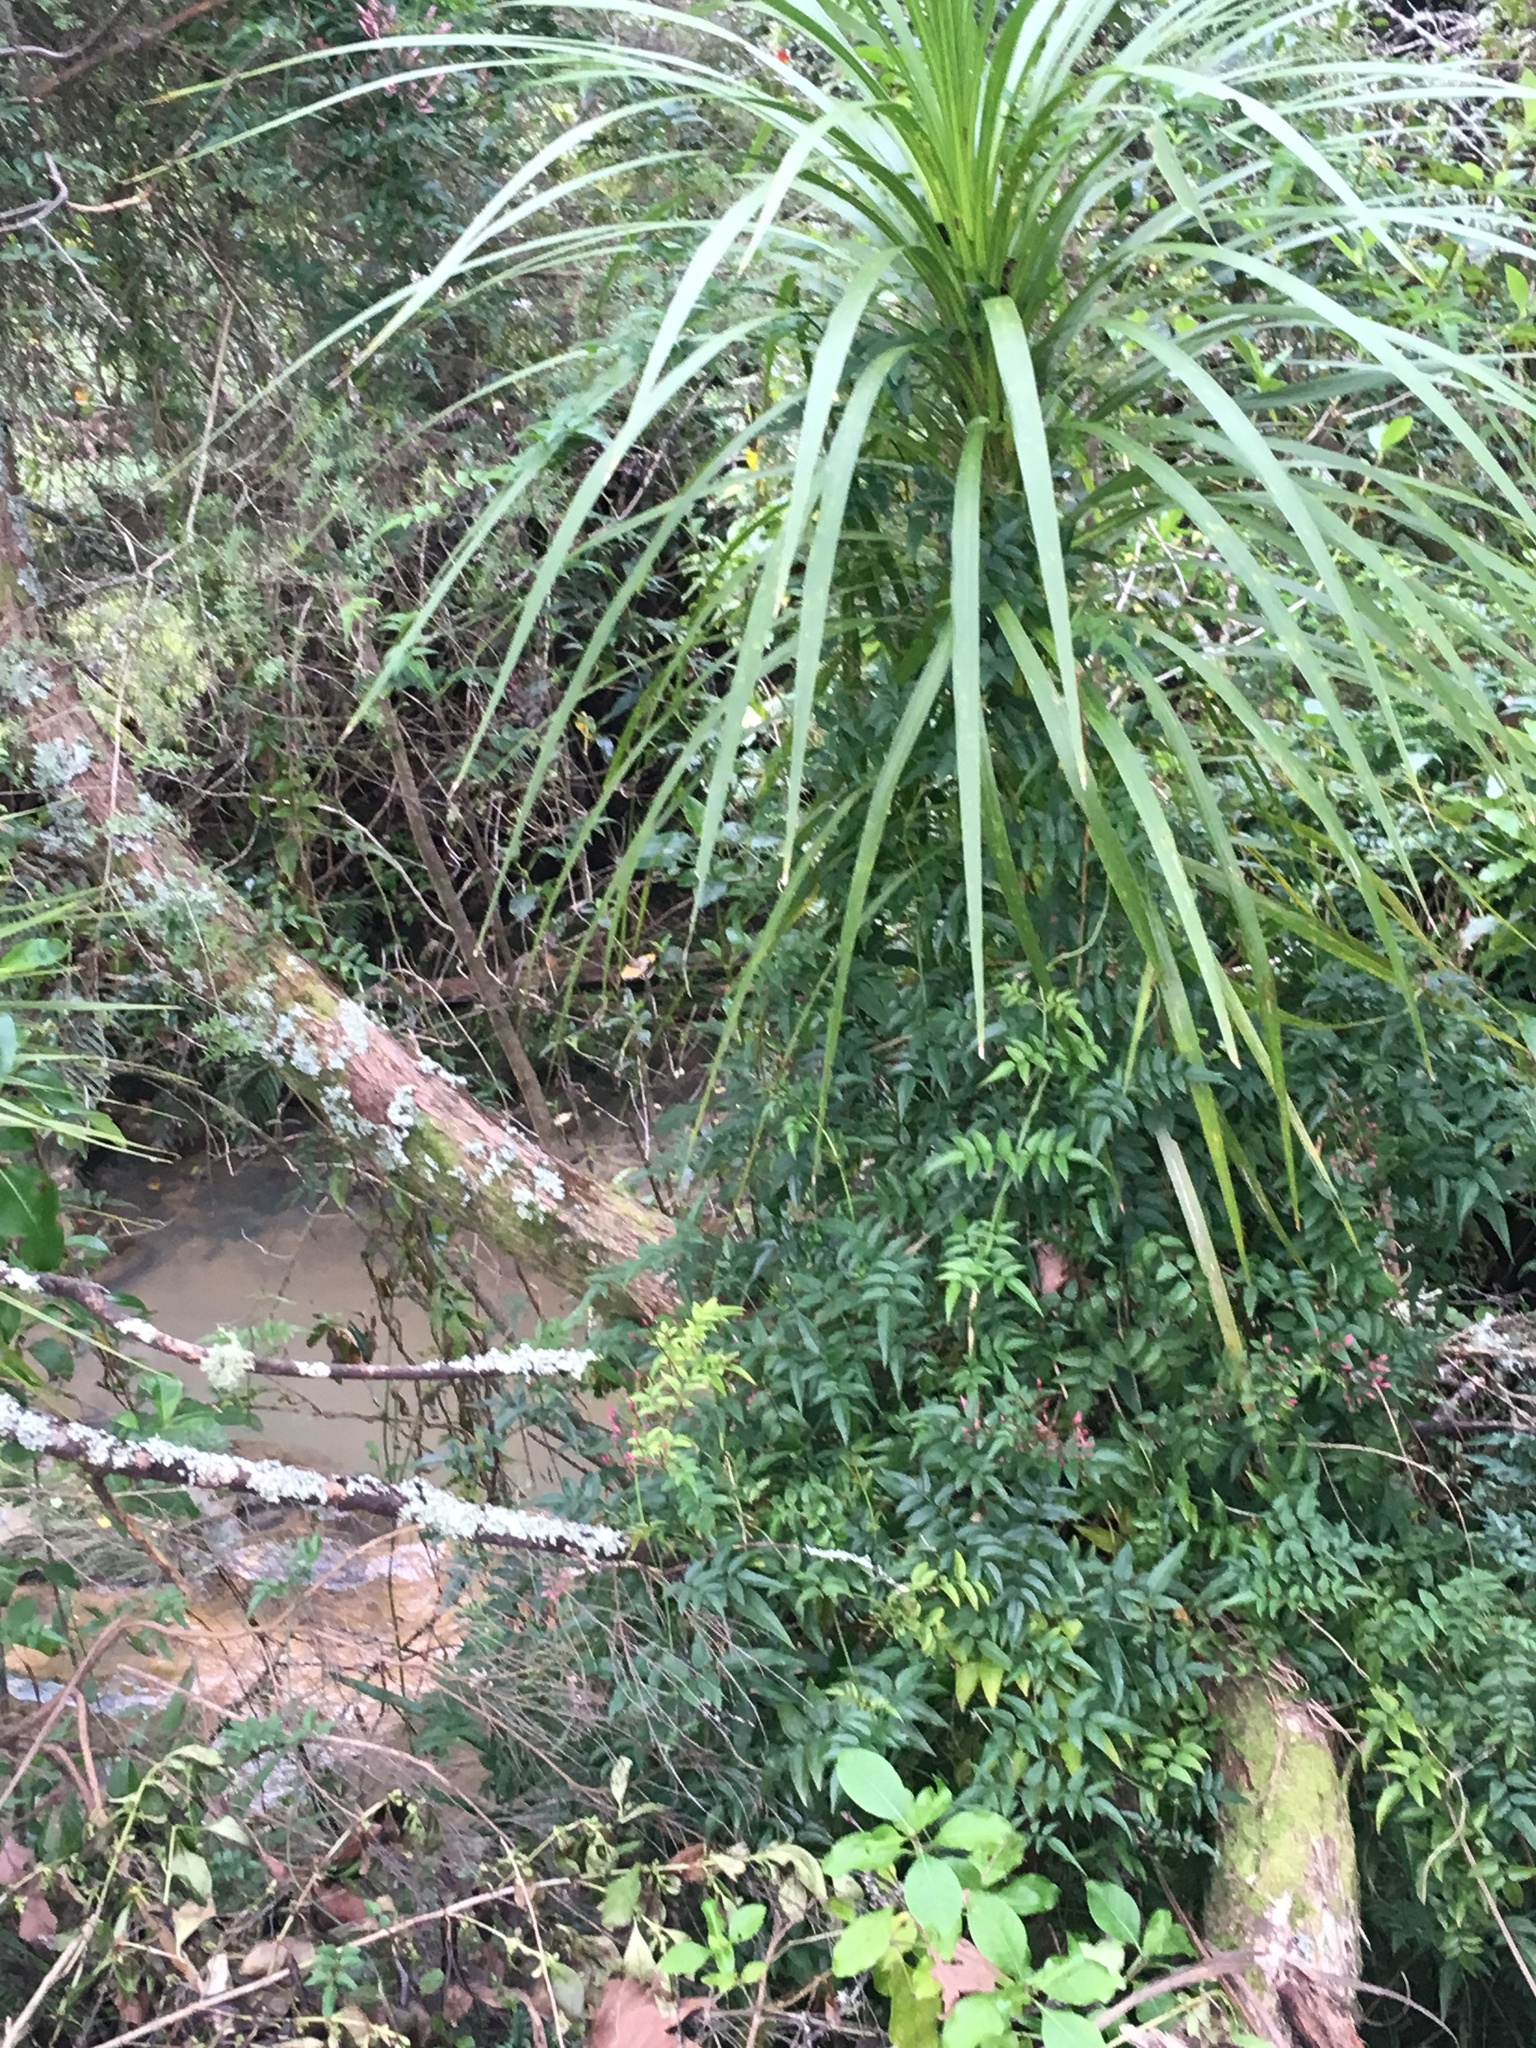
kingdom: Plantae
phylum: Tracheophyta
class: Liliopsida
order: Asparagales
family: Asparagaceae
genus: Cordyline
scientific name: Cordyline australis
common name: Cabbage-palm
